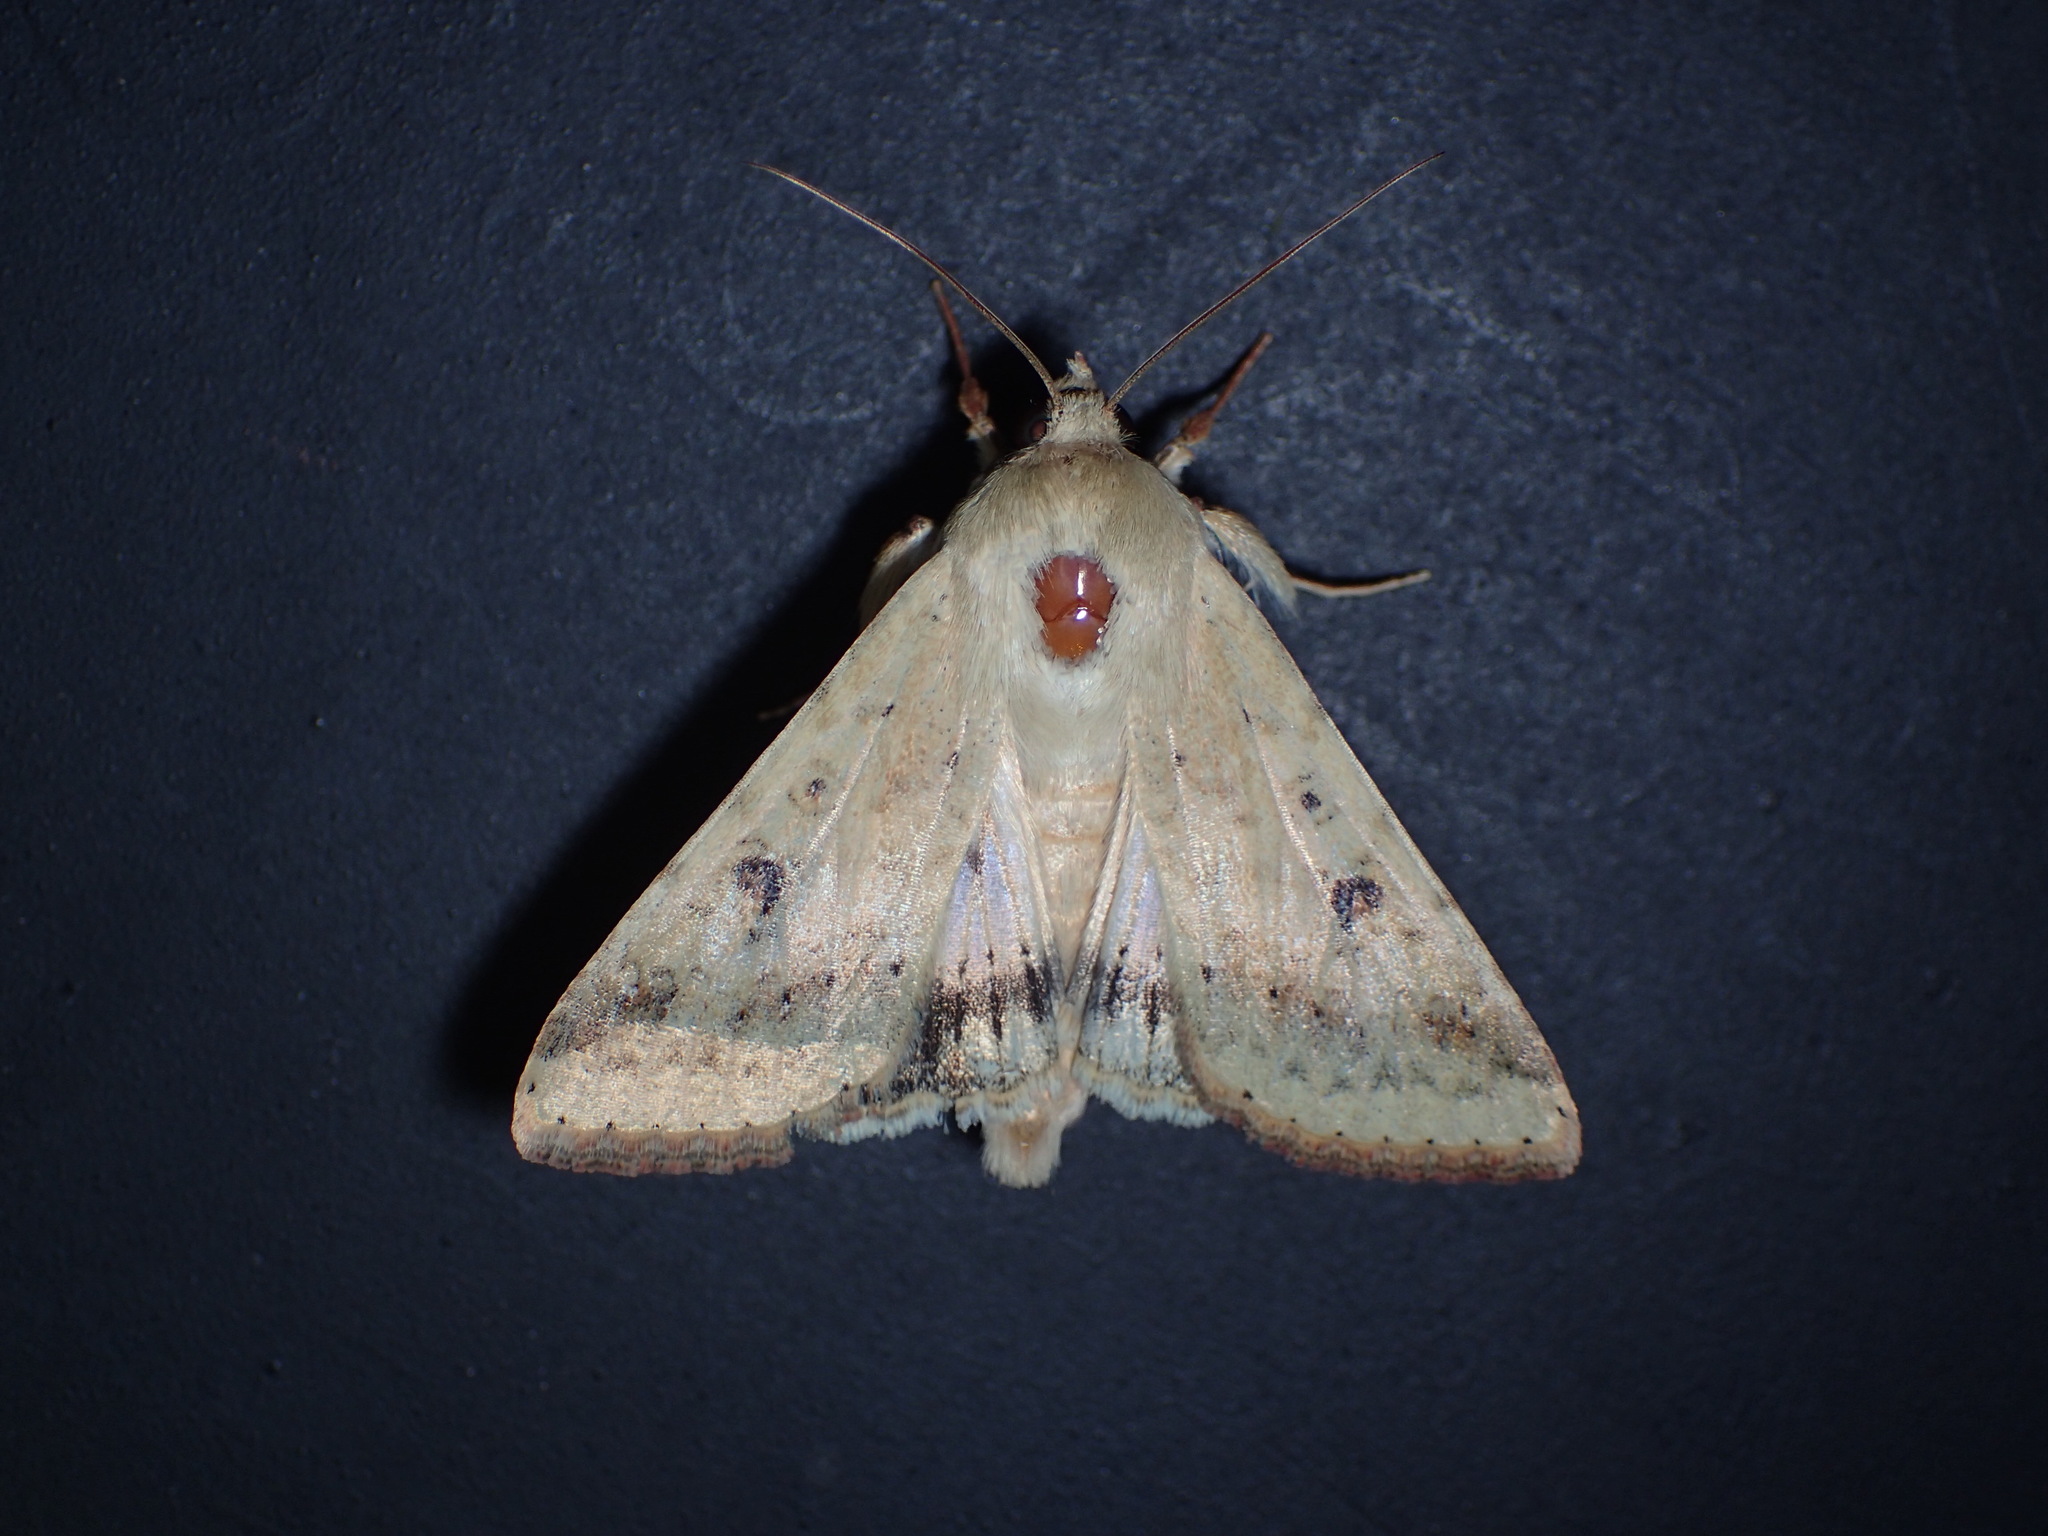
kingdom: Animalia
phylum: Arthropoda
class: Insecta
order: Lepidoptera
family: Noctuidae
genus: Helicoverpa
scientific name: Helicoverpa zea
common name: Bollworm
